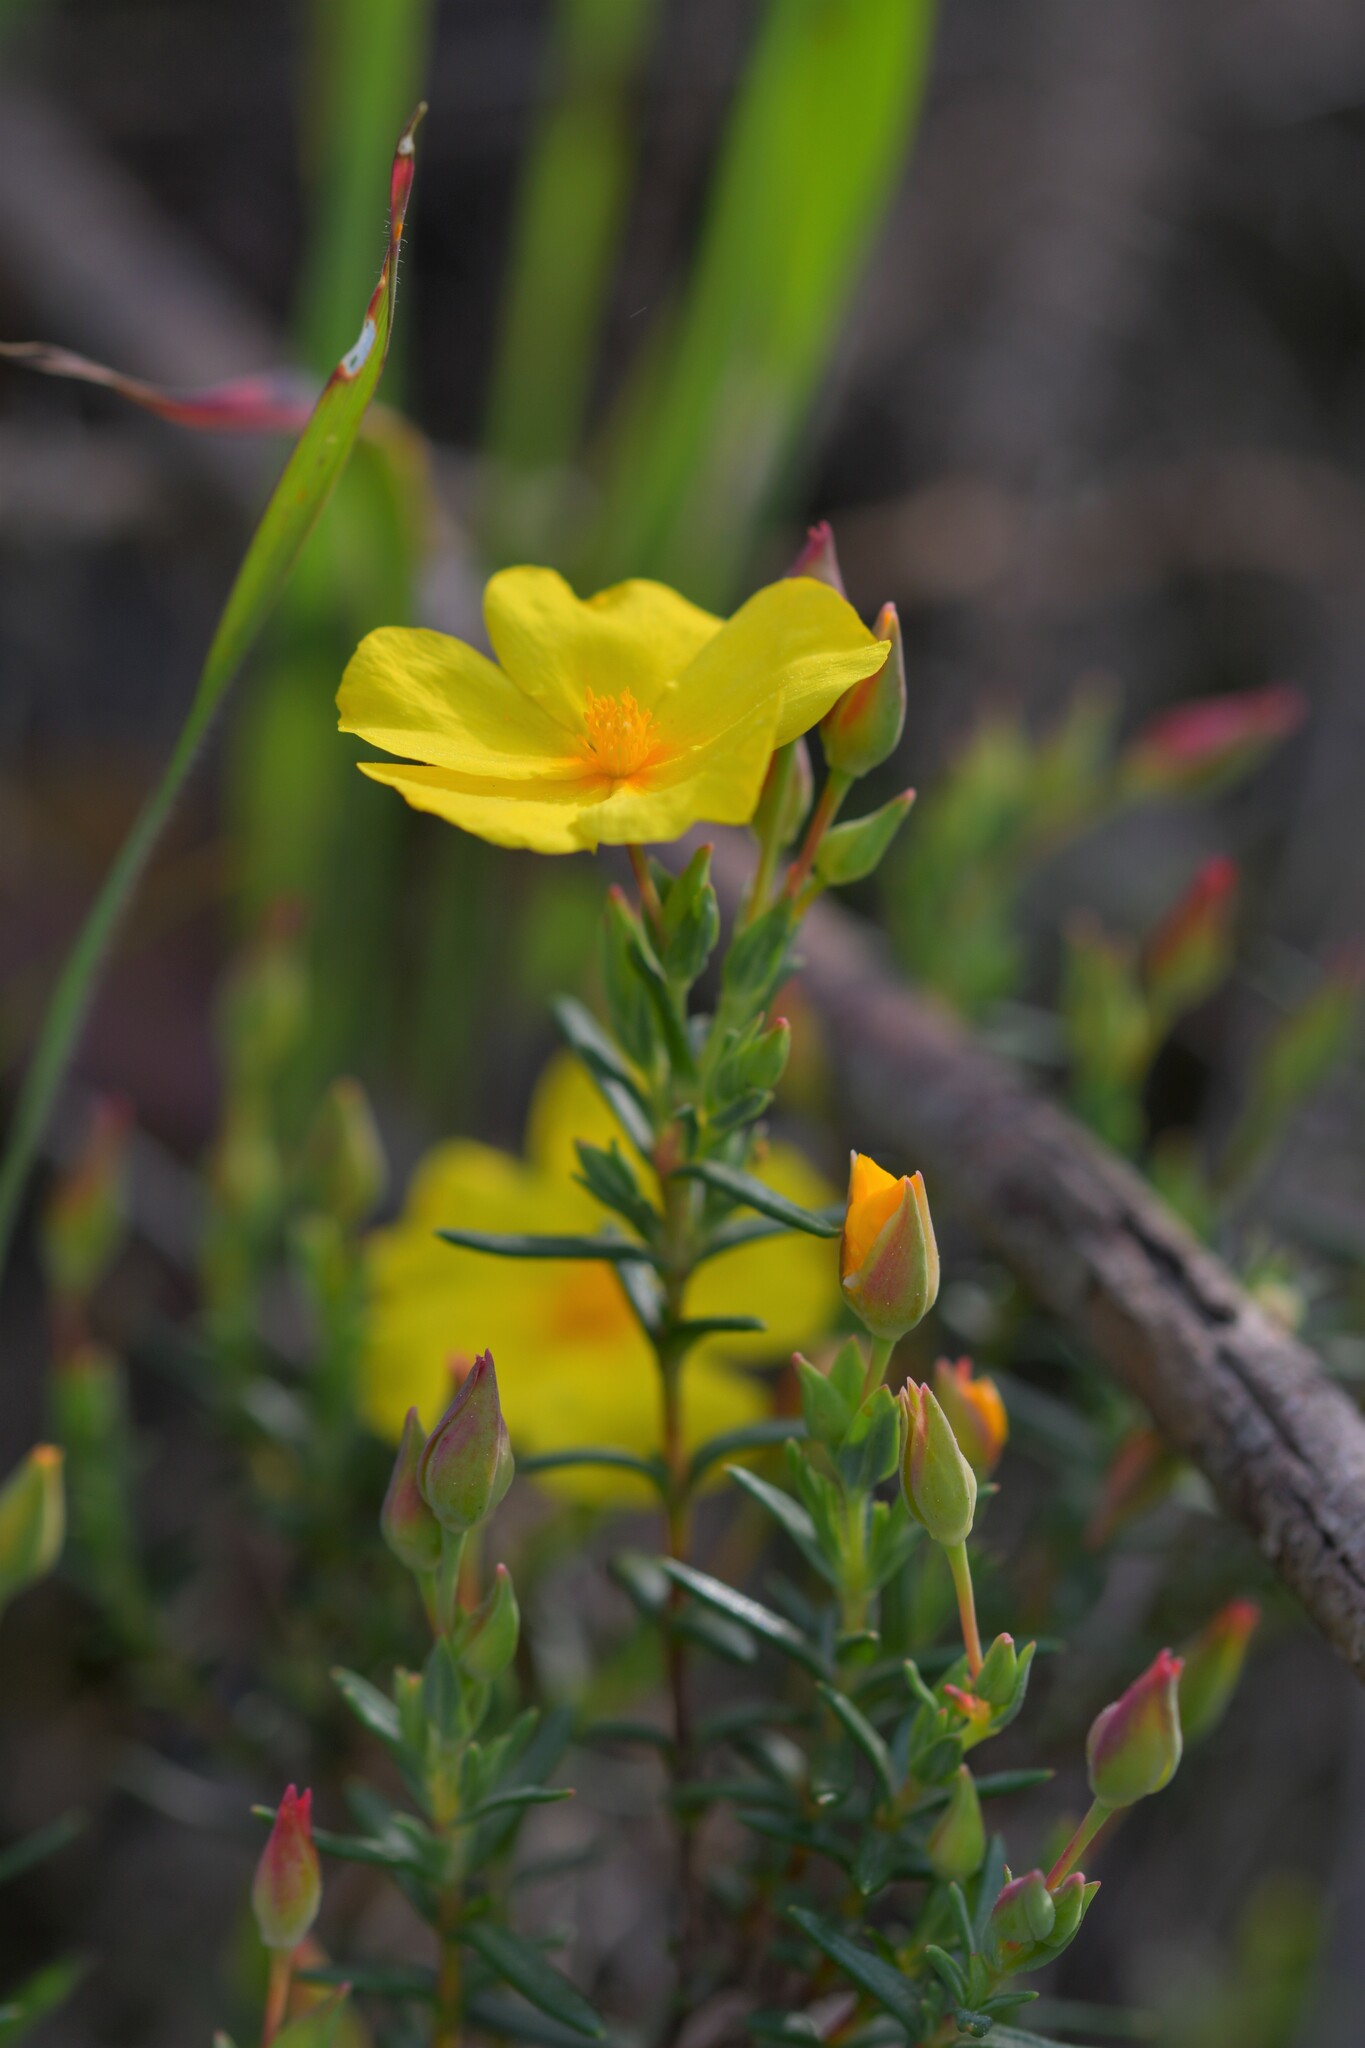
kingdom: Plantae
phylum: Tracheophyta
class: Magnoliopsida
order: Malvales
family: Cistaceae
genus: Halimium
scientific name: Halimium calycinum
